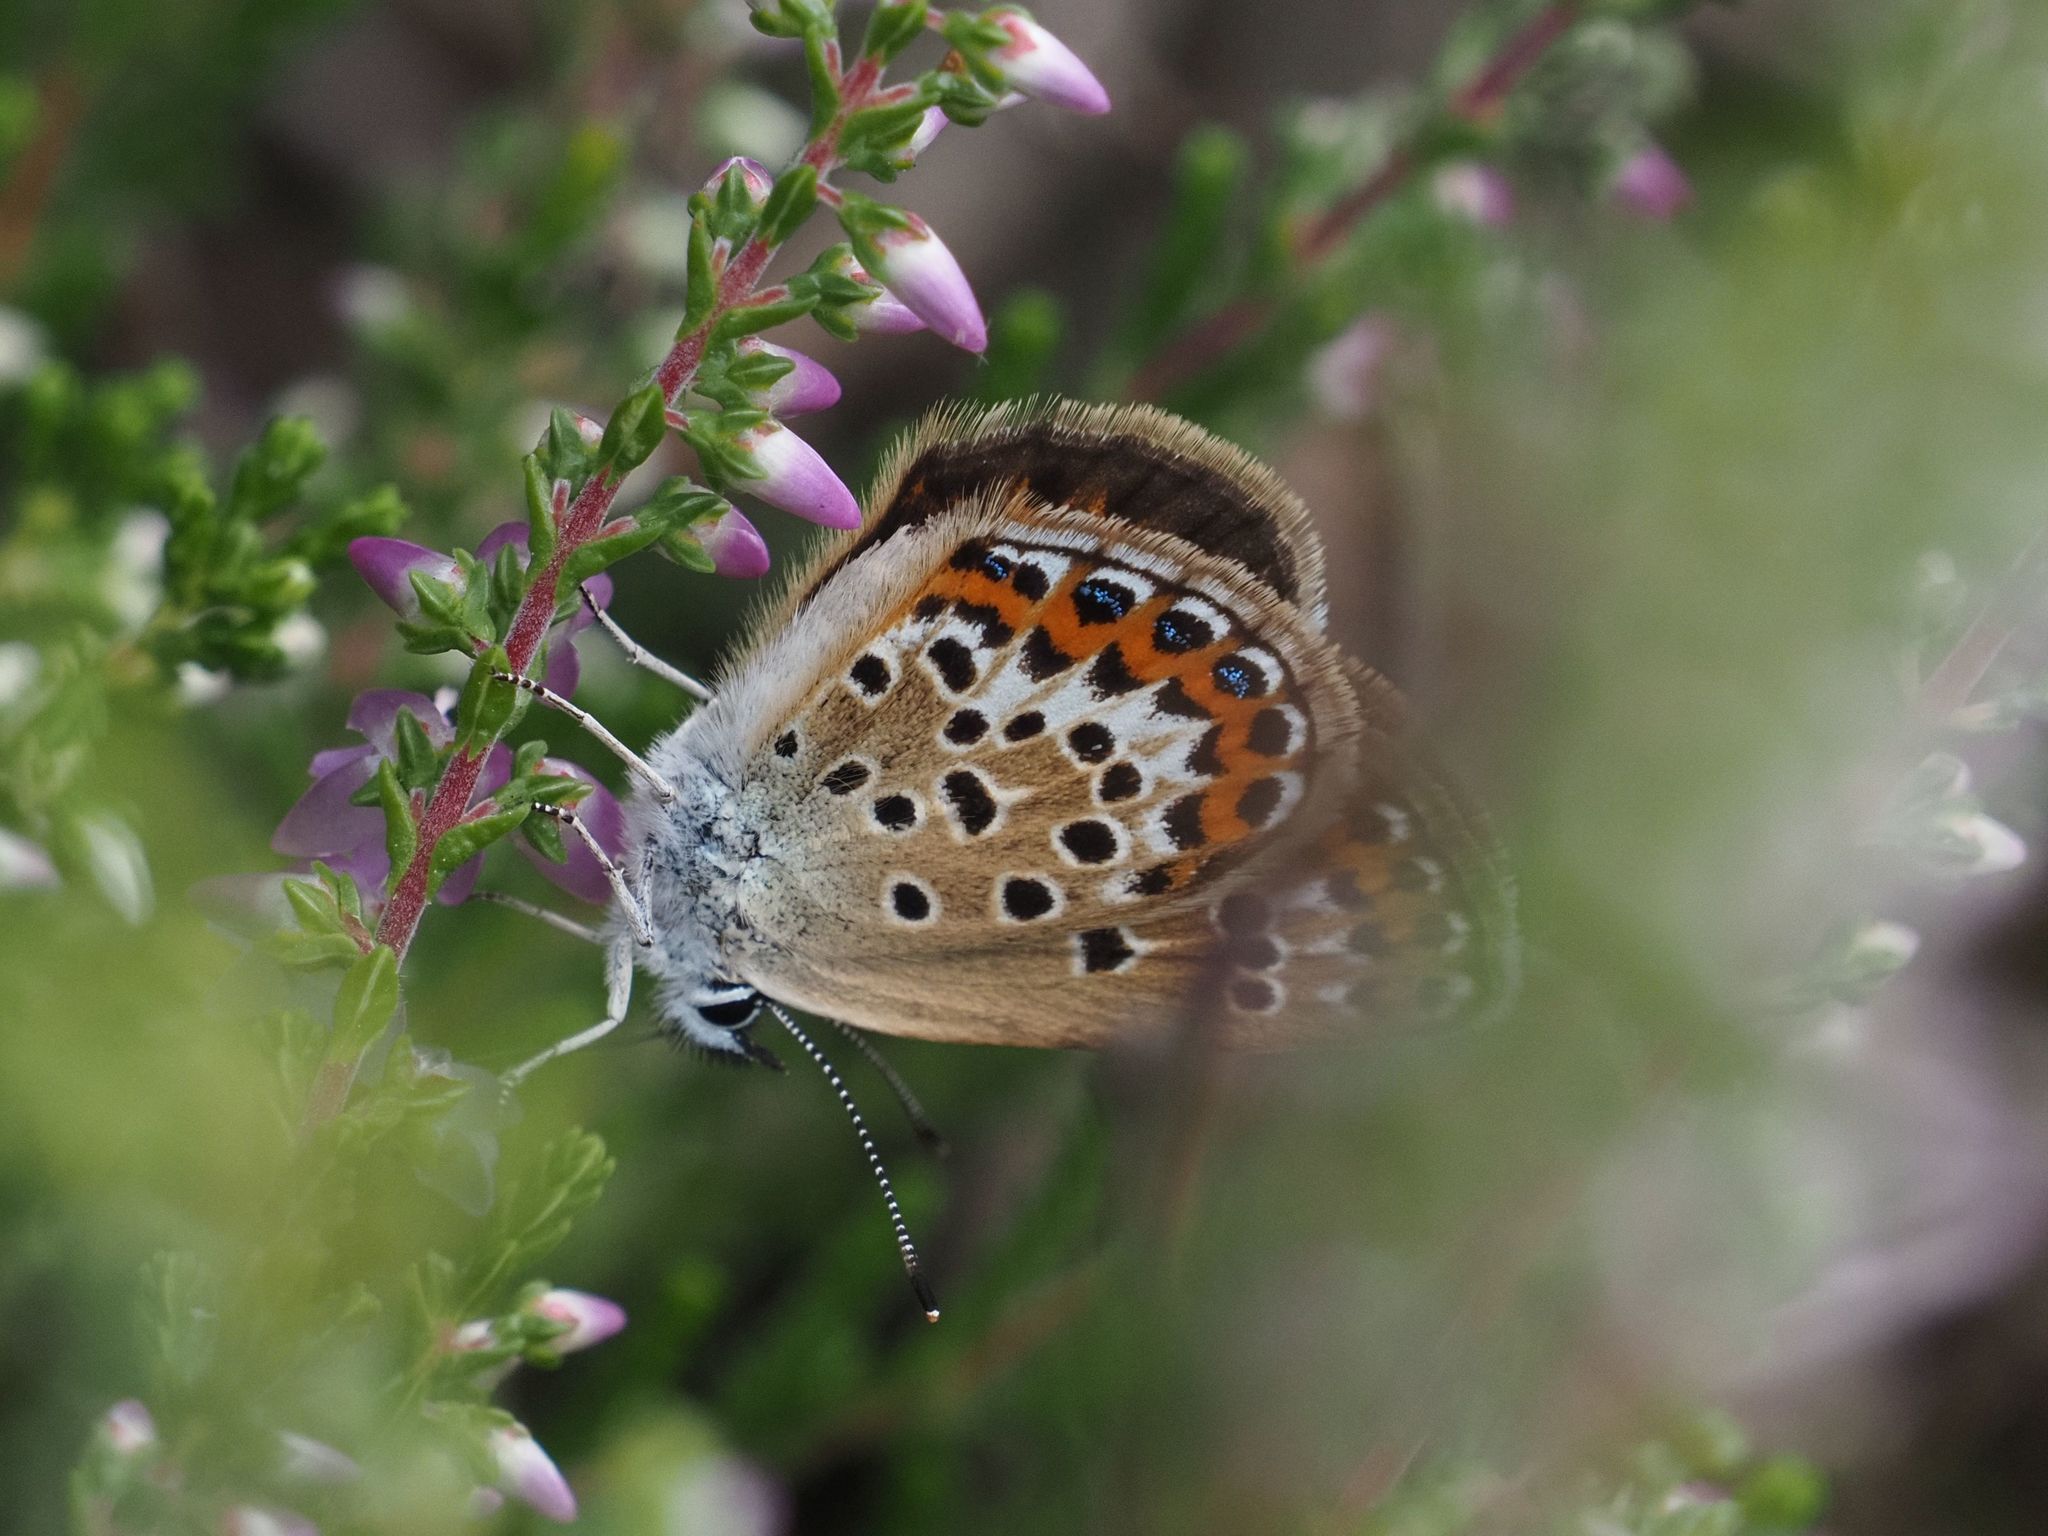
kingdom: Animalia
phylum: Arthropoda
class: Insecta
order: Lepidoptera
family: Lycaenidae
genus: Plebejus
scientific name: Plebejus argus
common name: Silver-studded blue
